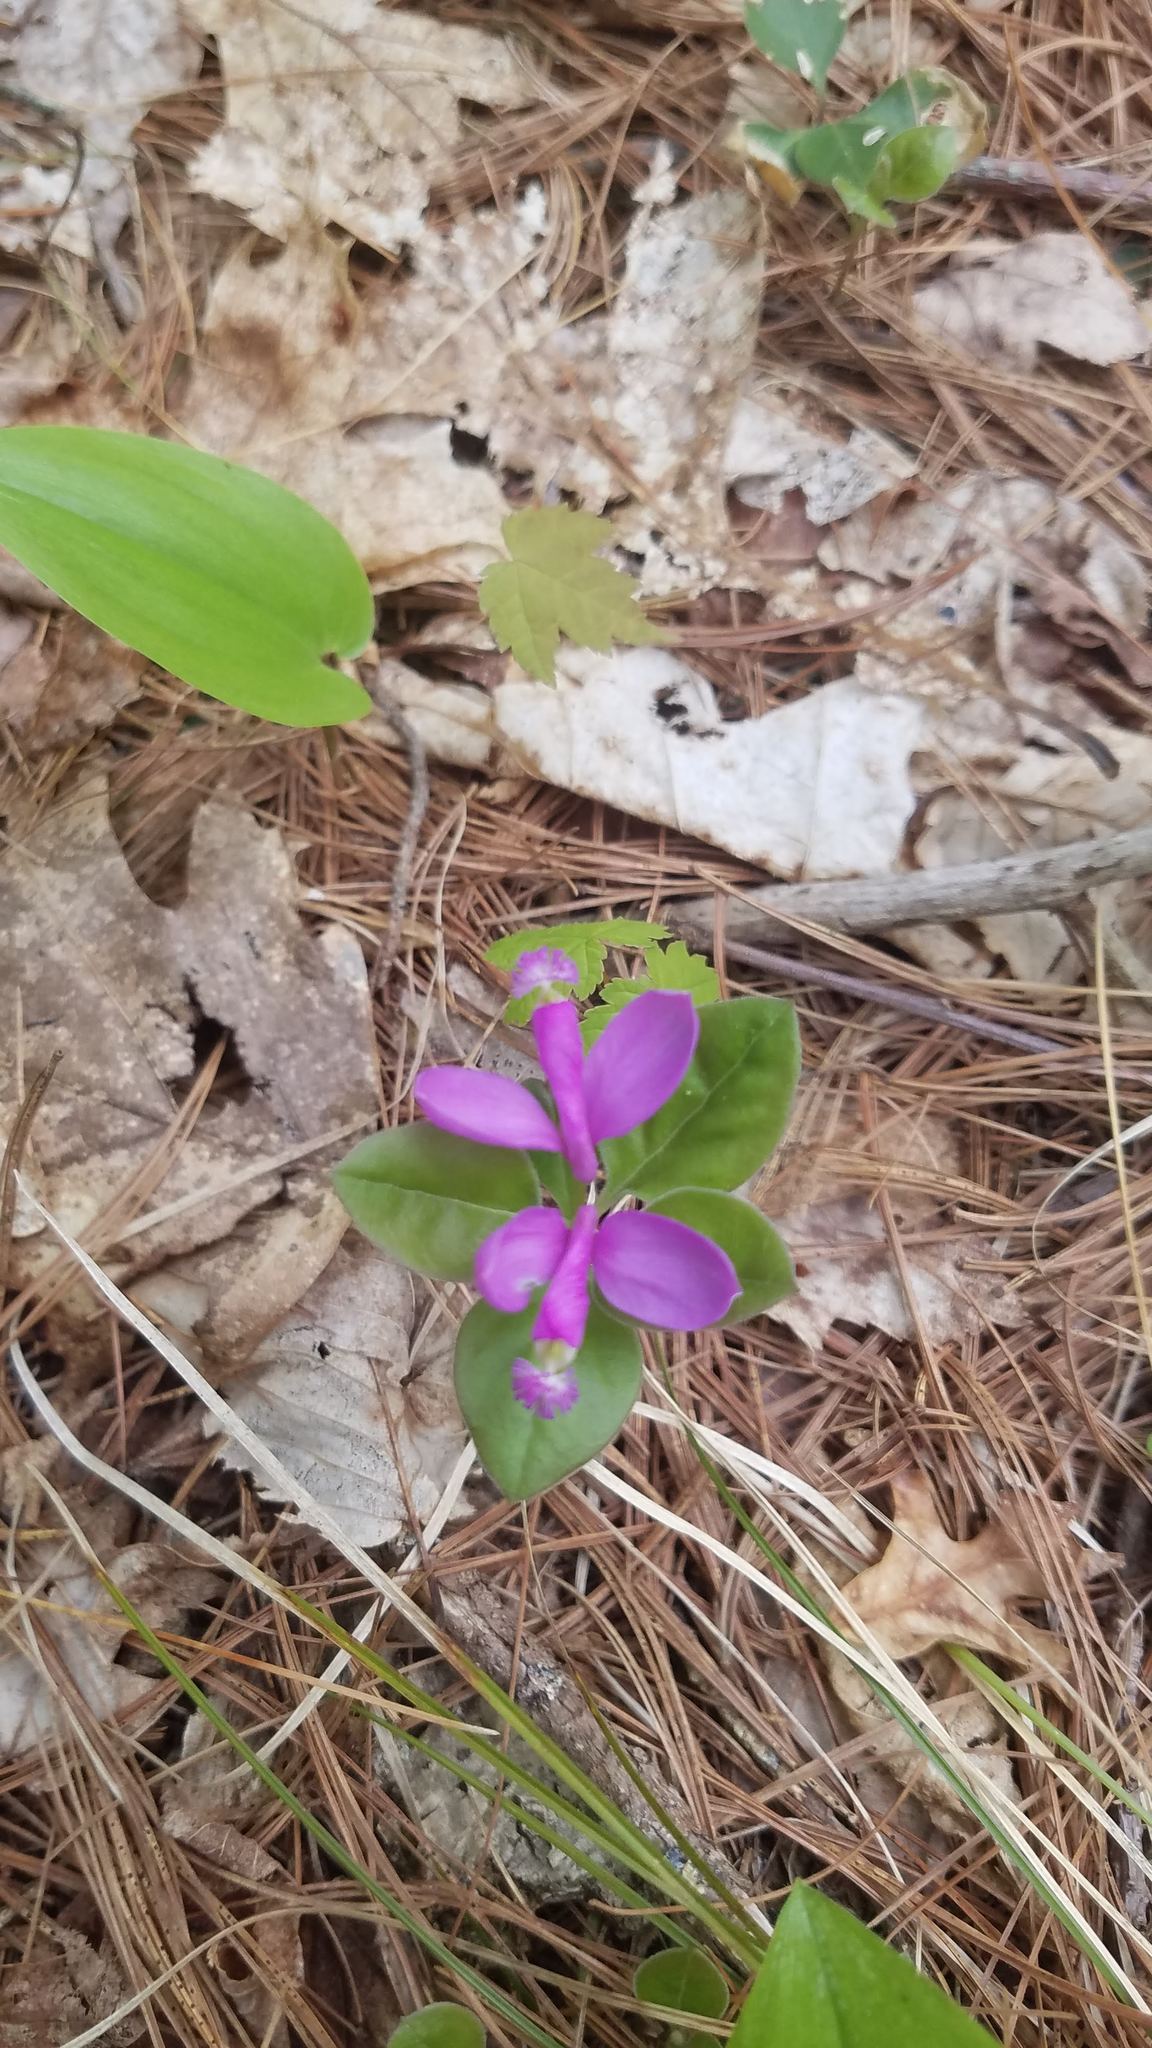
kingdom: Plantae
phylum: Tracheophyta
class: Magnoliopsida
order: Fabales
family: Polygalaceae
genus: Polygaloides
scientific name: Polygaloides paucifolia
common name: Bird-on-the-wing
